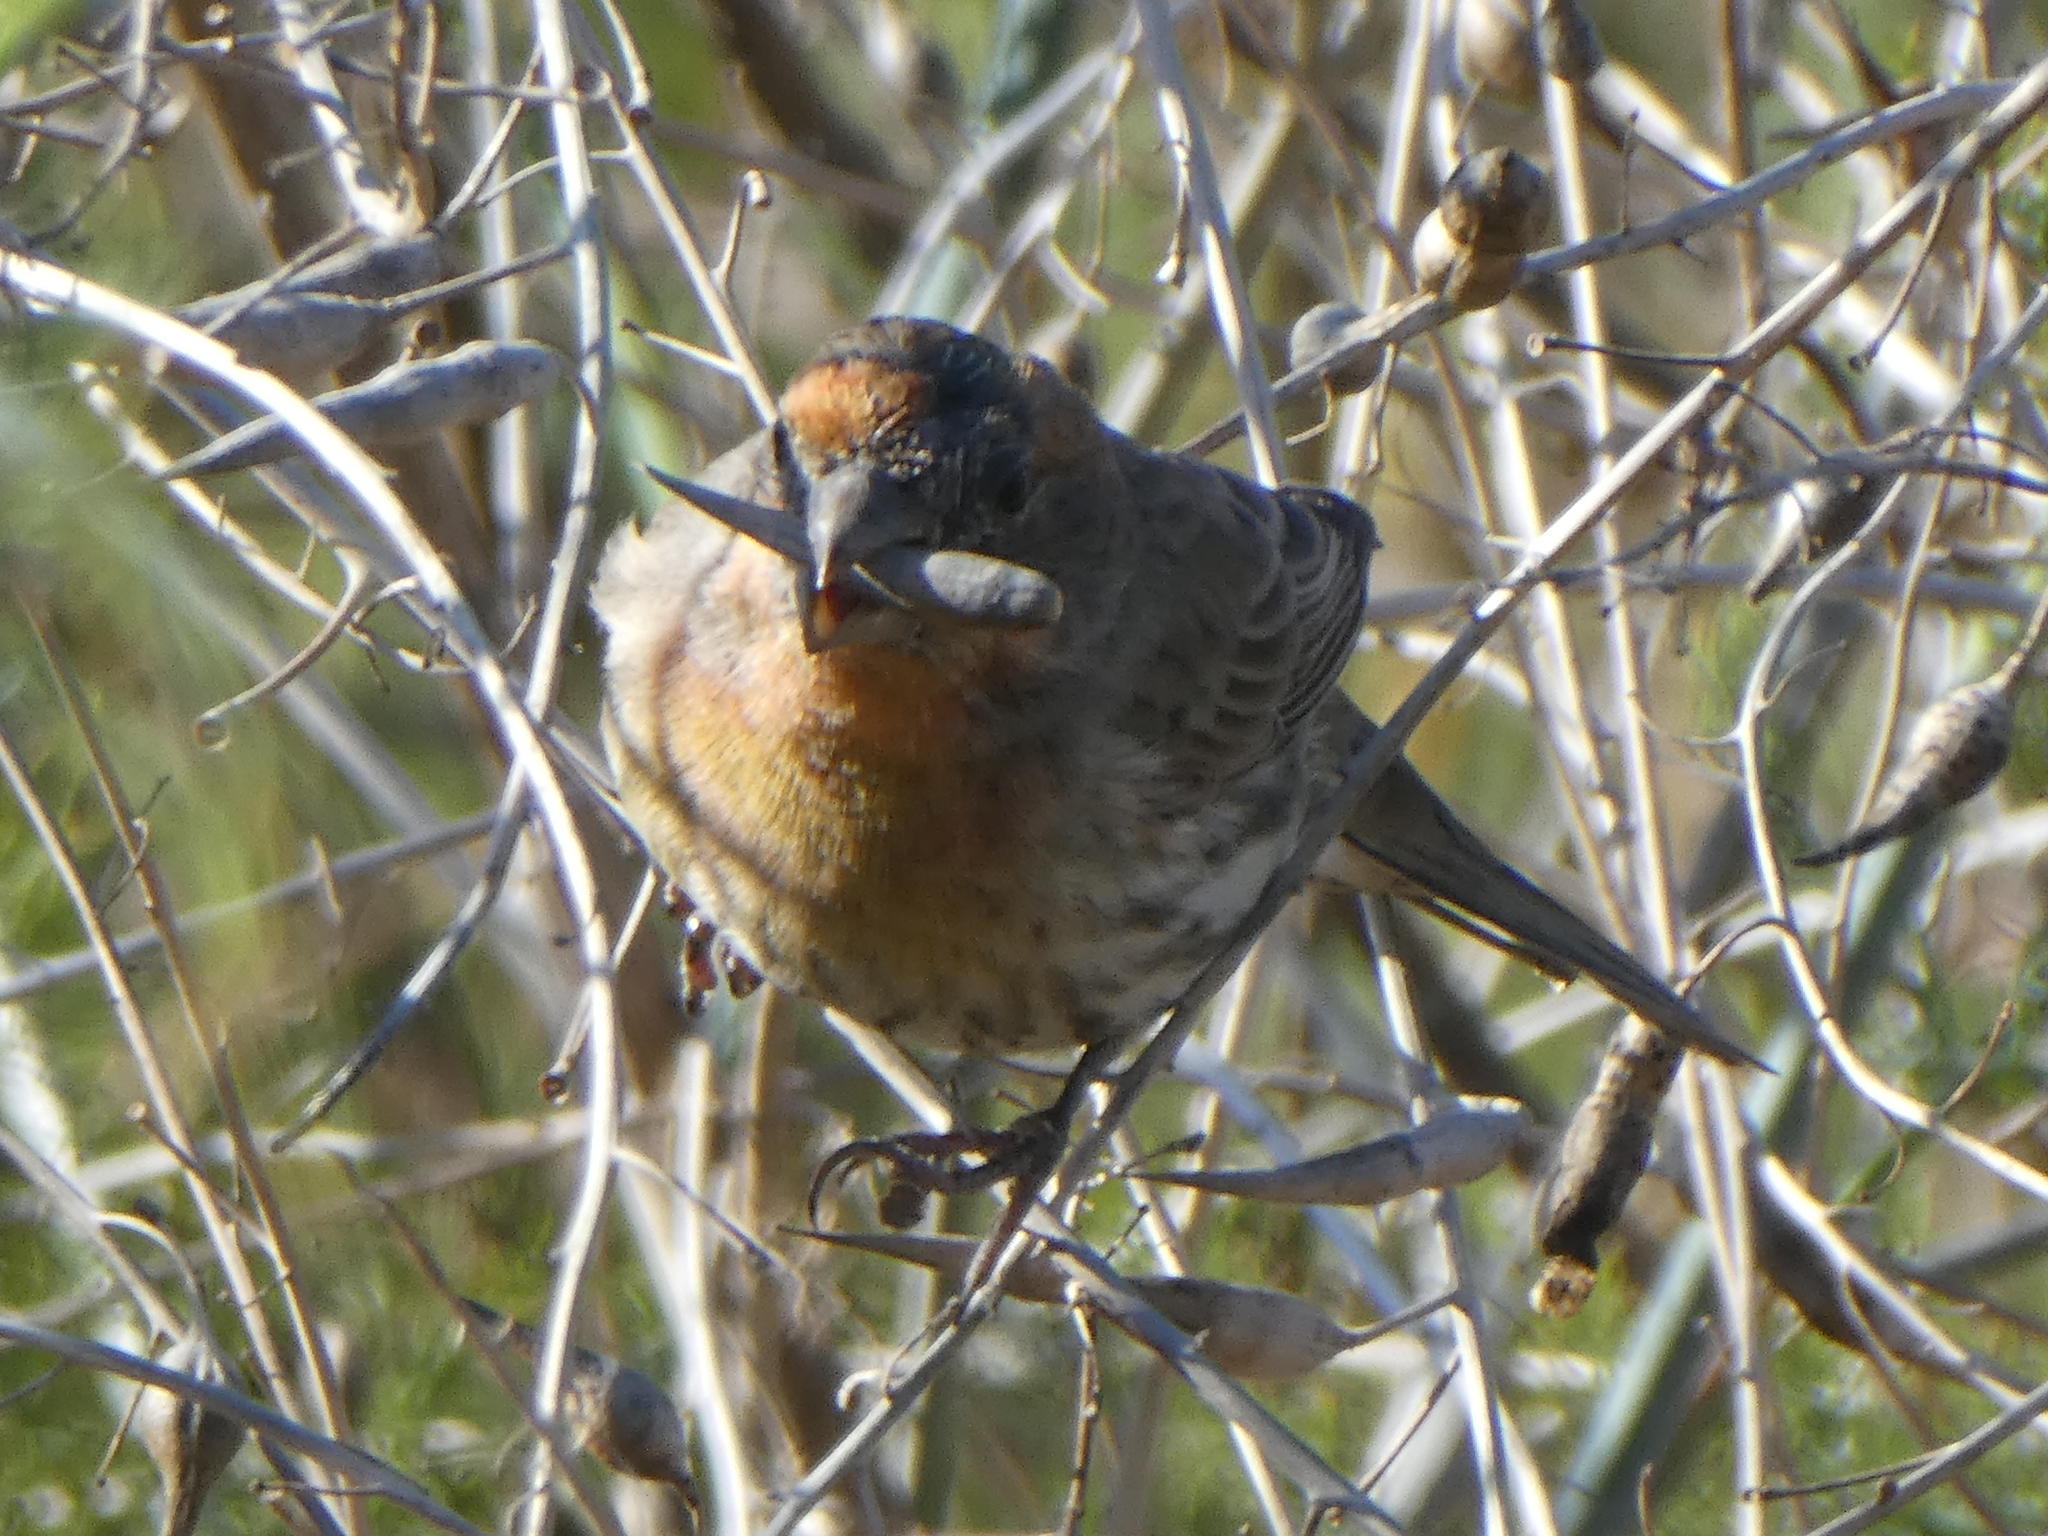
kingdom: Animalia
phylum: Chordata
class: Aves
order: Passeriformes
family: Fringillidae
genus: Haemorhous
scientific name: Haemorhous mexicanus
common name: House finch
